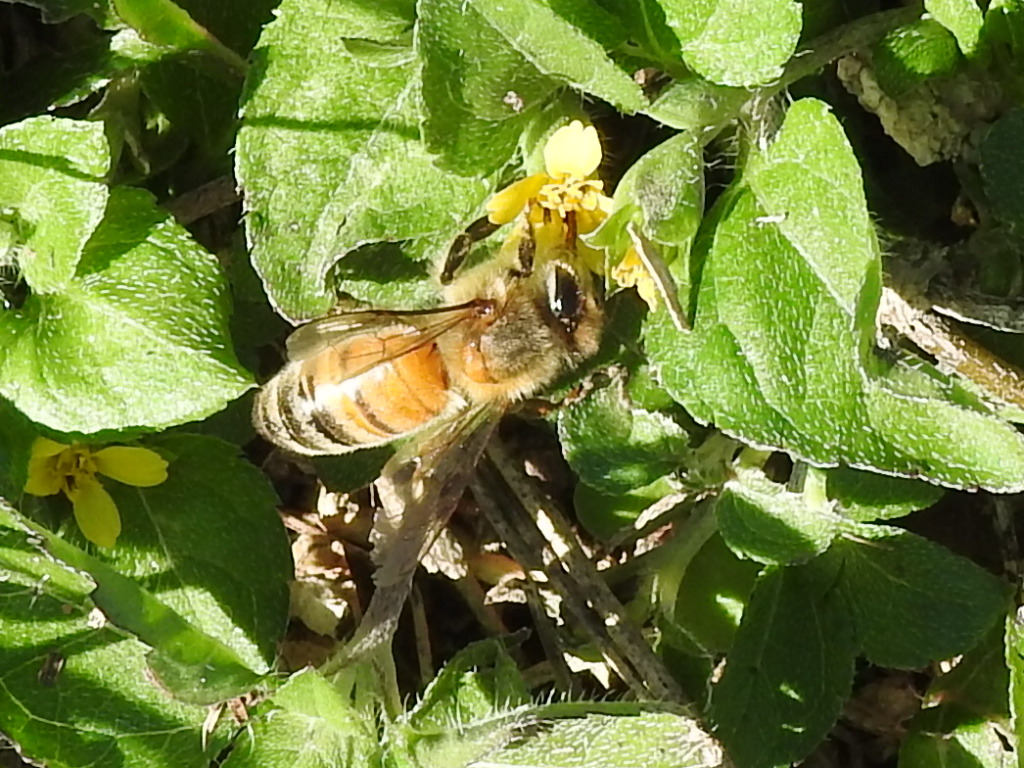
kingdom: Animalia
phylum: Arthropoda
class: Insecta
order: Hymenoptera
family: Apidae
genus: Apis
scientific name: Apis mellifera
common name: Honey bee
